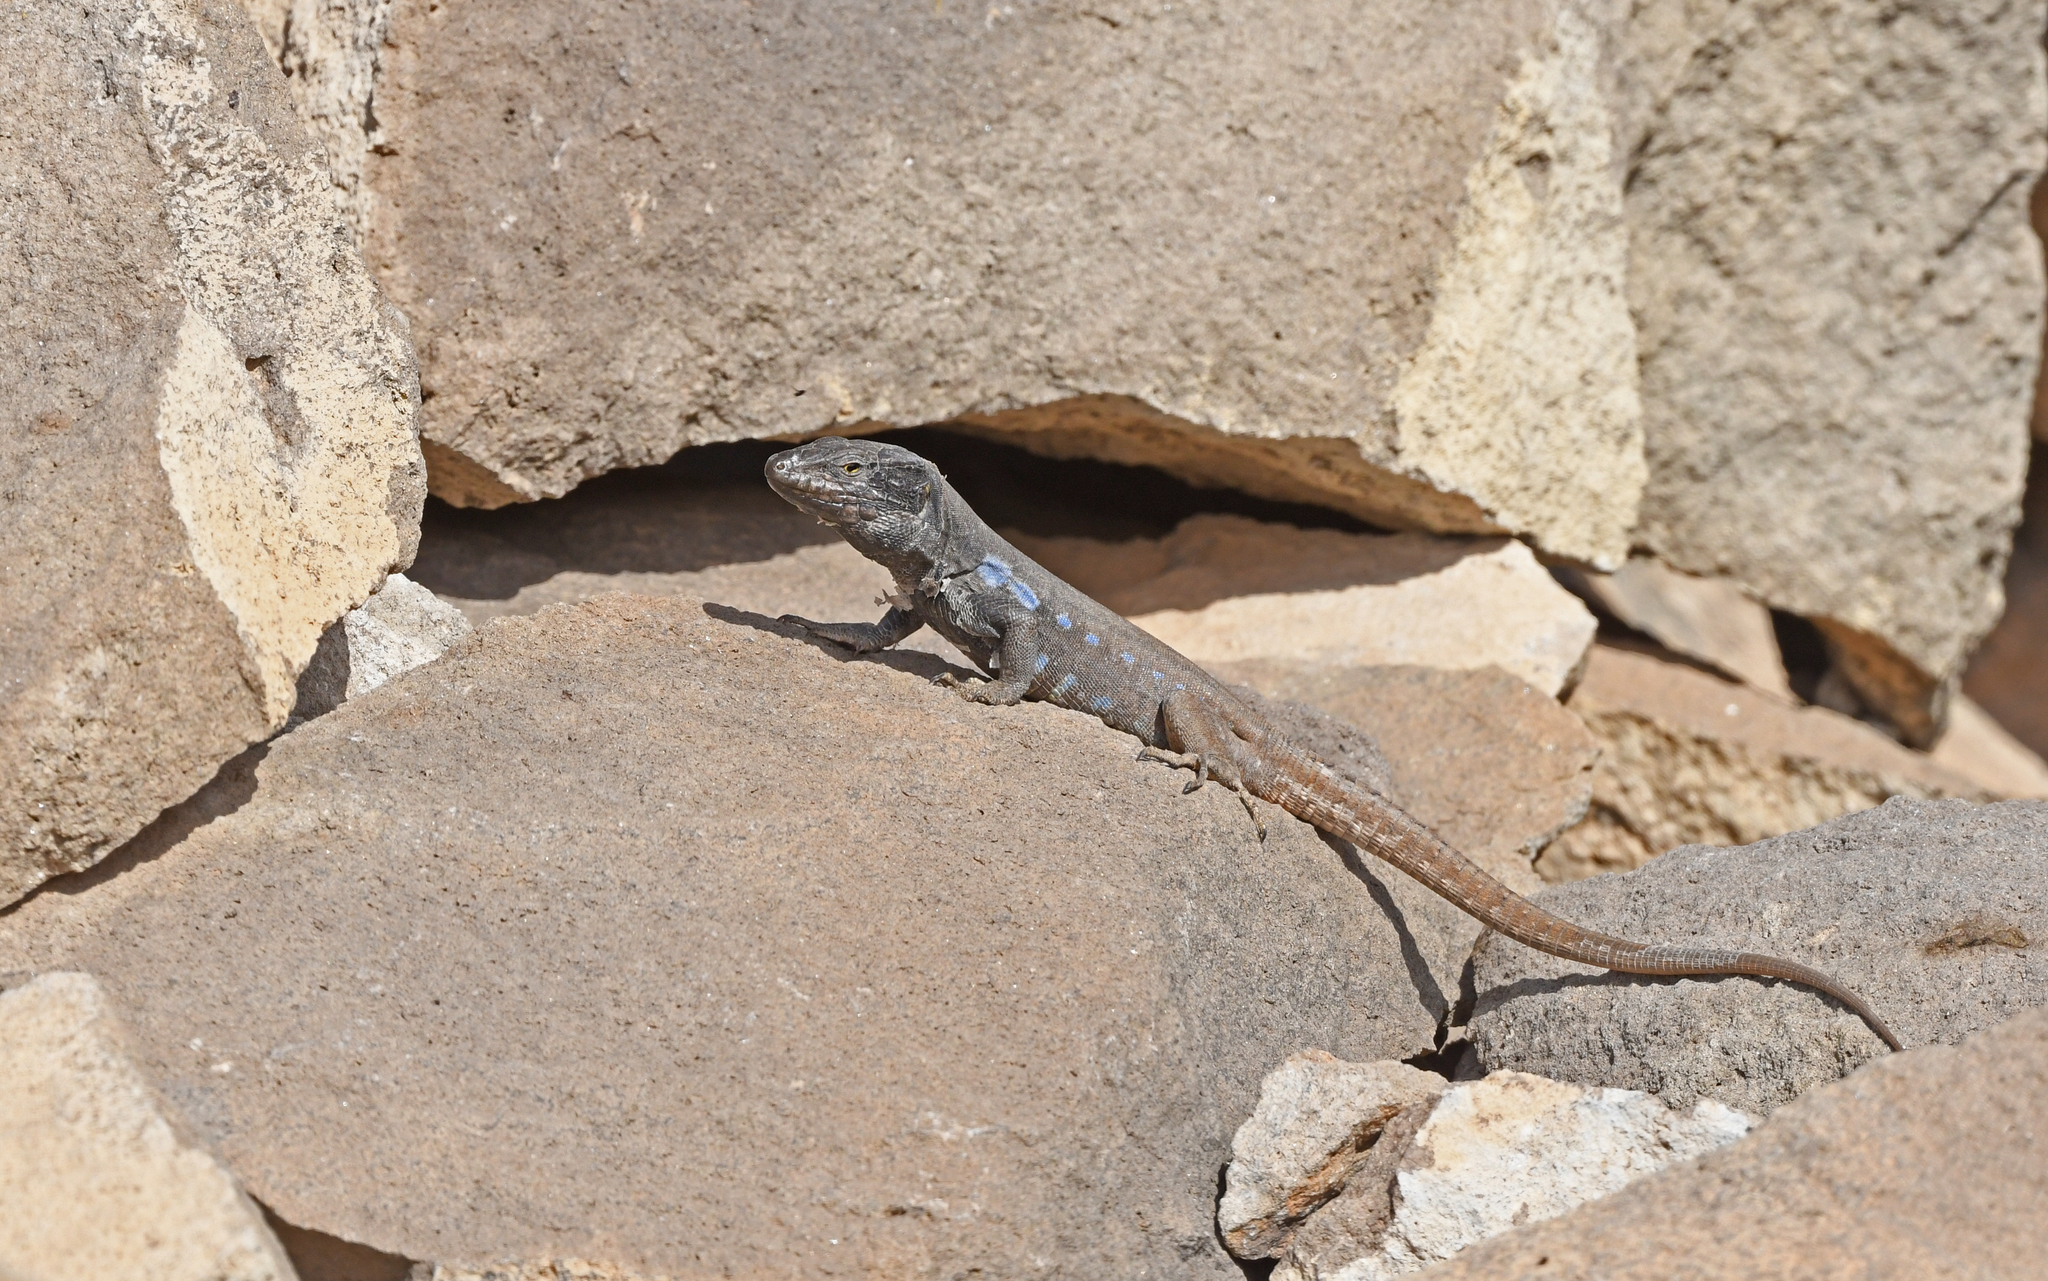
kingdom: Animalia
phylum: Chordata
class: Squamata
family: Lacertidae
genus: Gallotia
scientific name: Gallotia galloti
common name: Gallot's lizard
